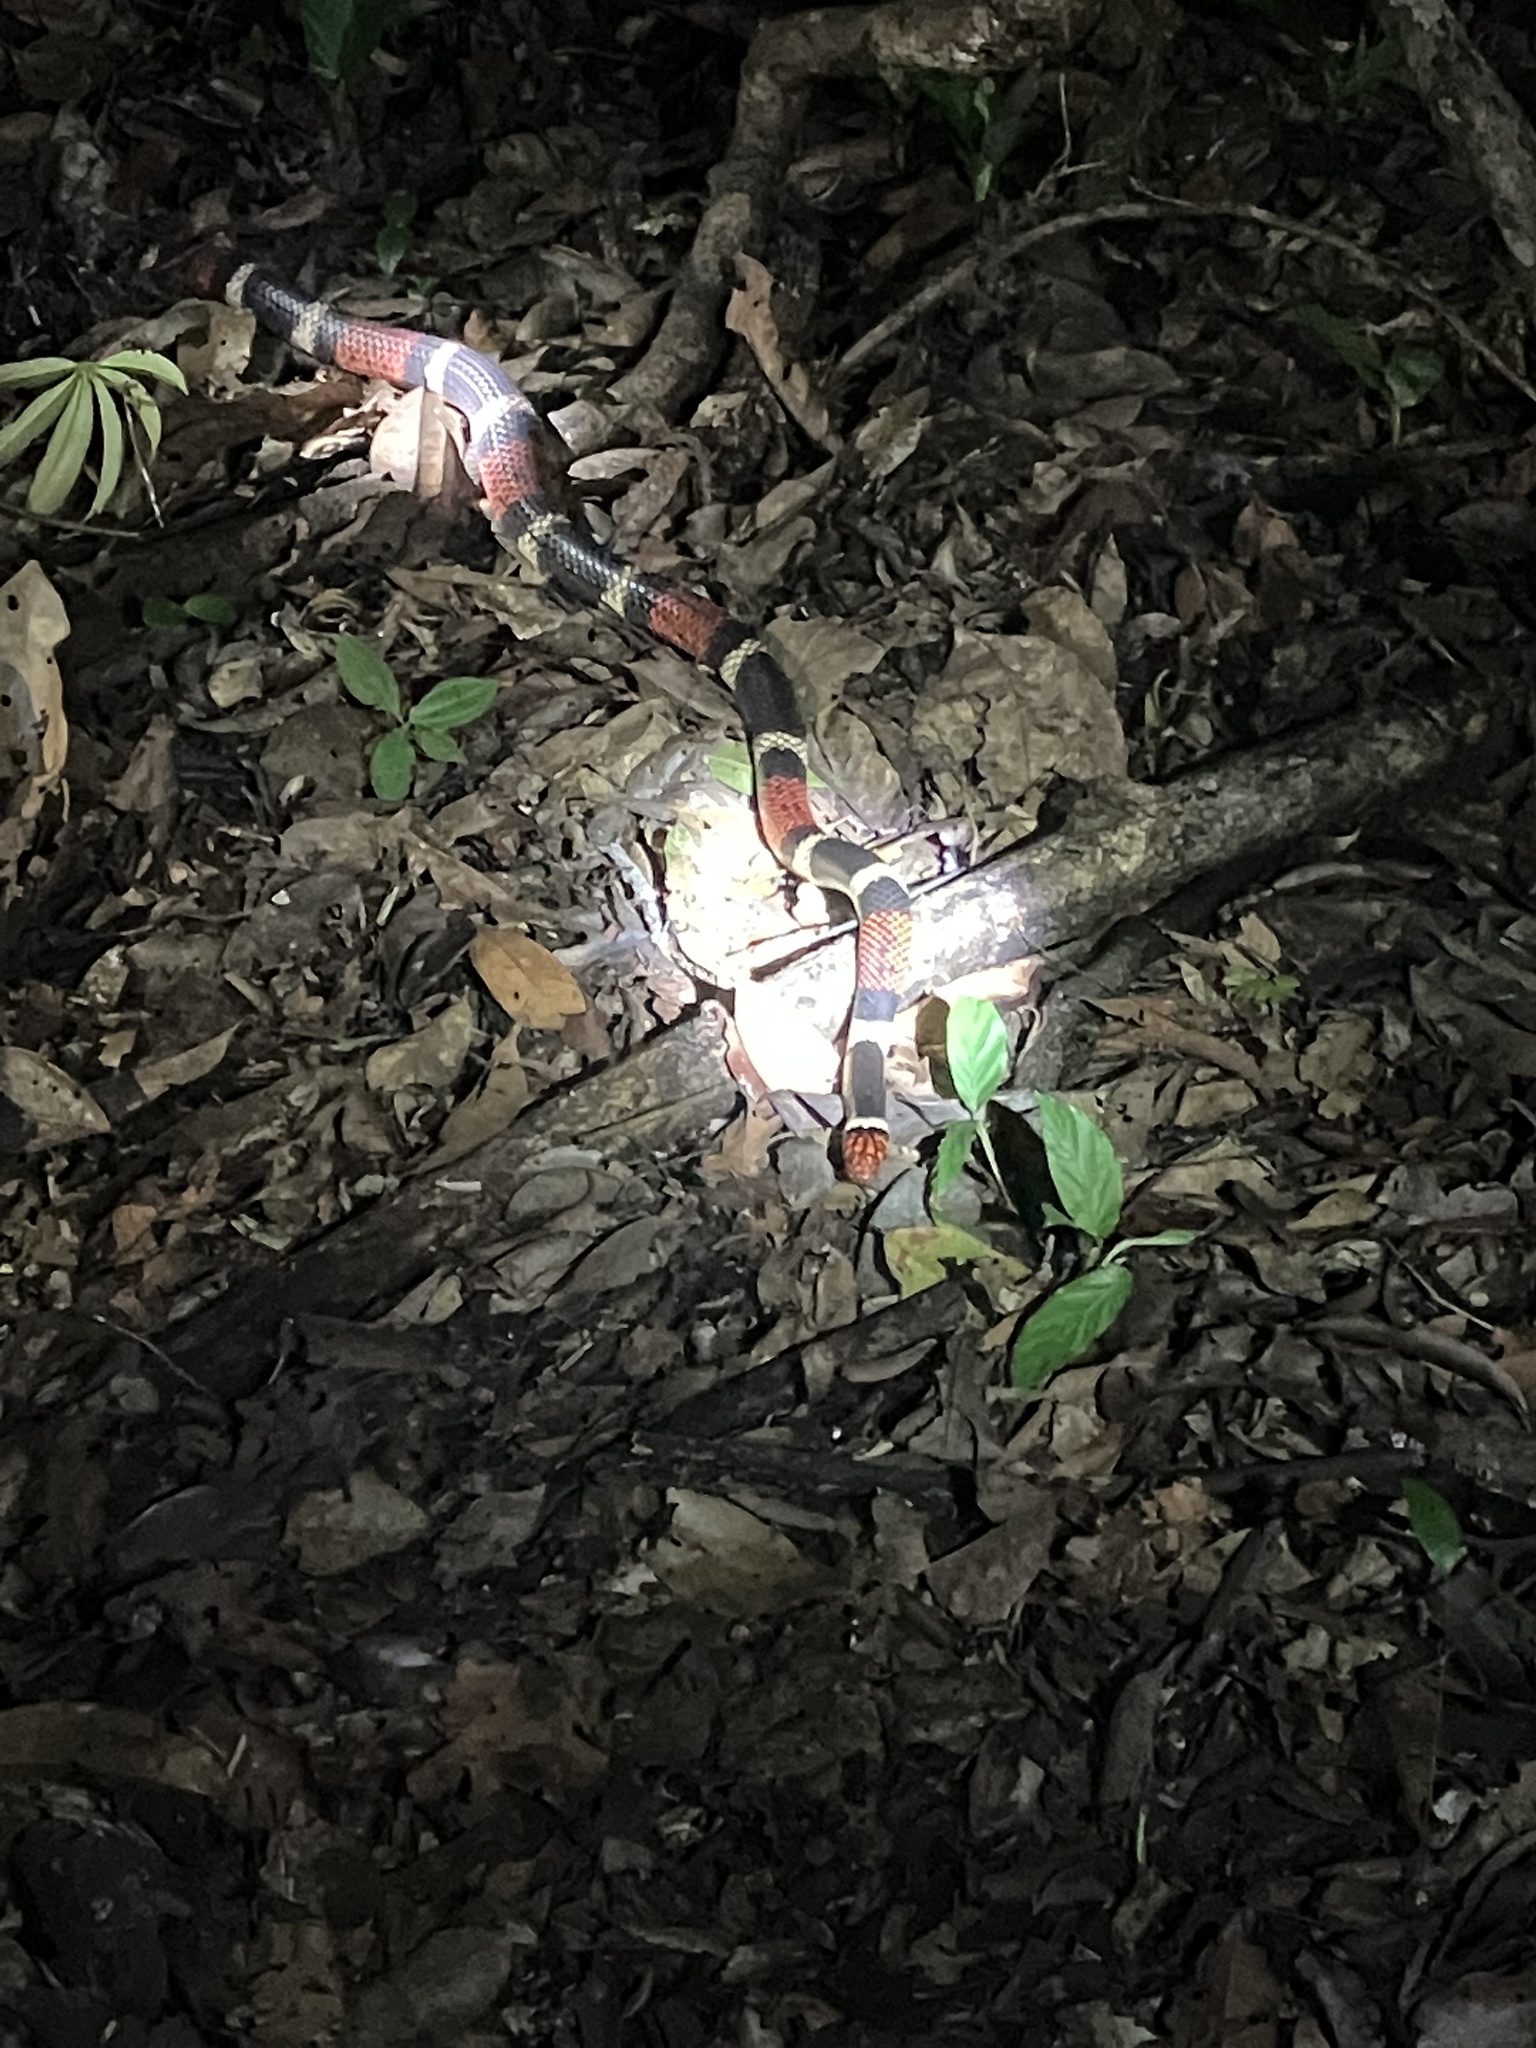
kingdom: Animalia
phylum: Chordata
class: Squamata
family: Elapidae
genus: Micrurus
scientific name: Micrurus surinamensis
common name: Aquatic coral snake
